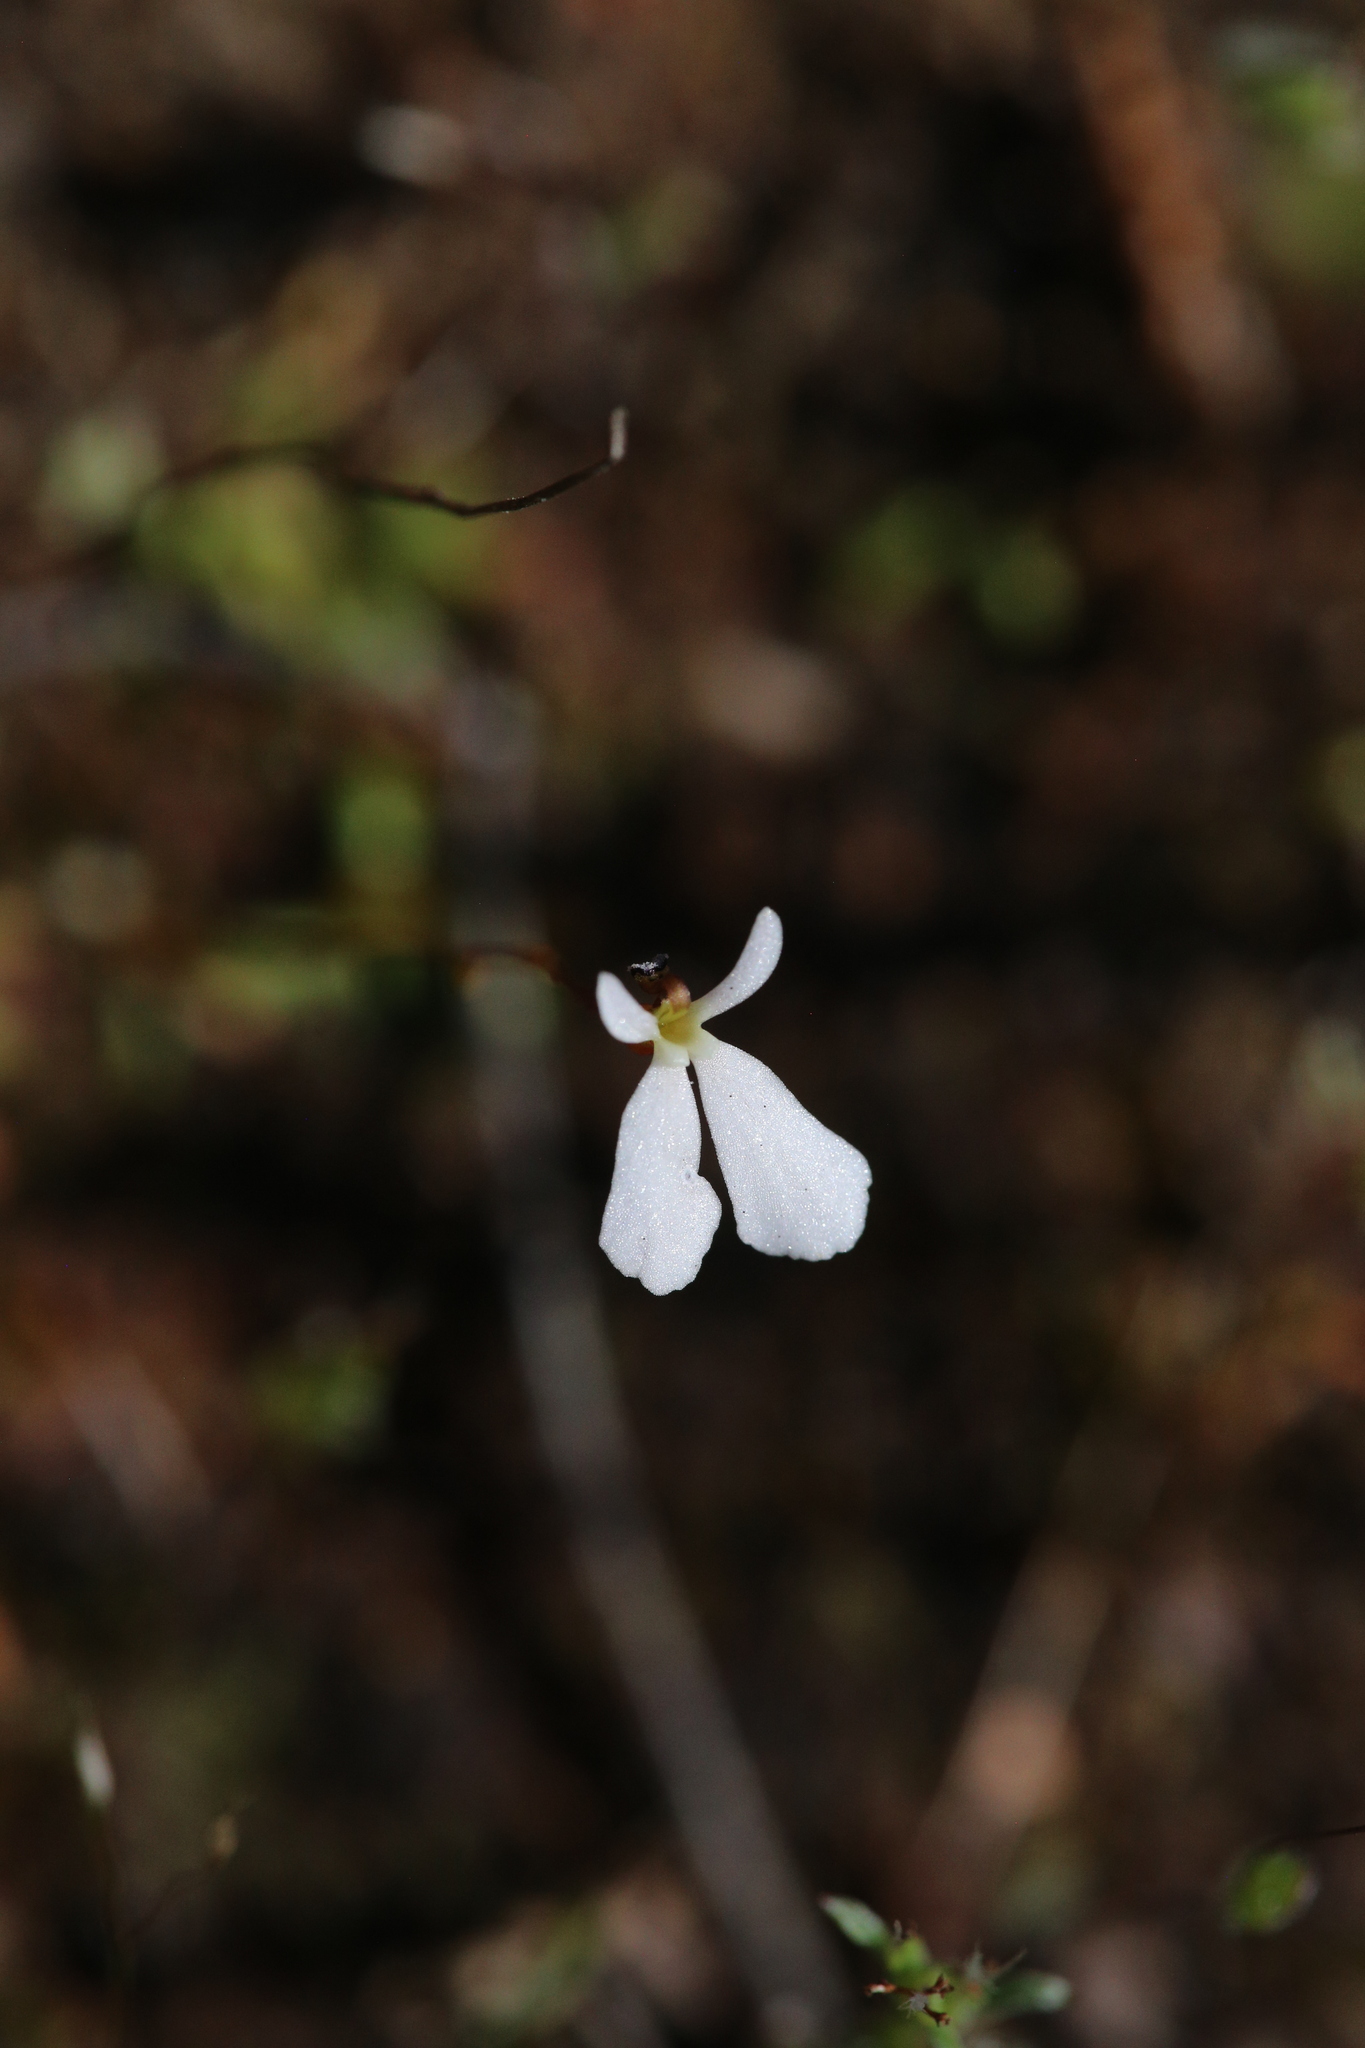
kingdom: Plantae
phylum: Tracheophyta
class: Magnoliopsida
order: Asterales
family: Stylidiaceae
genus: Stylidium
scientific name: Stylidium obtusatum
